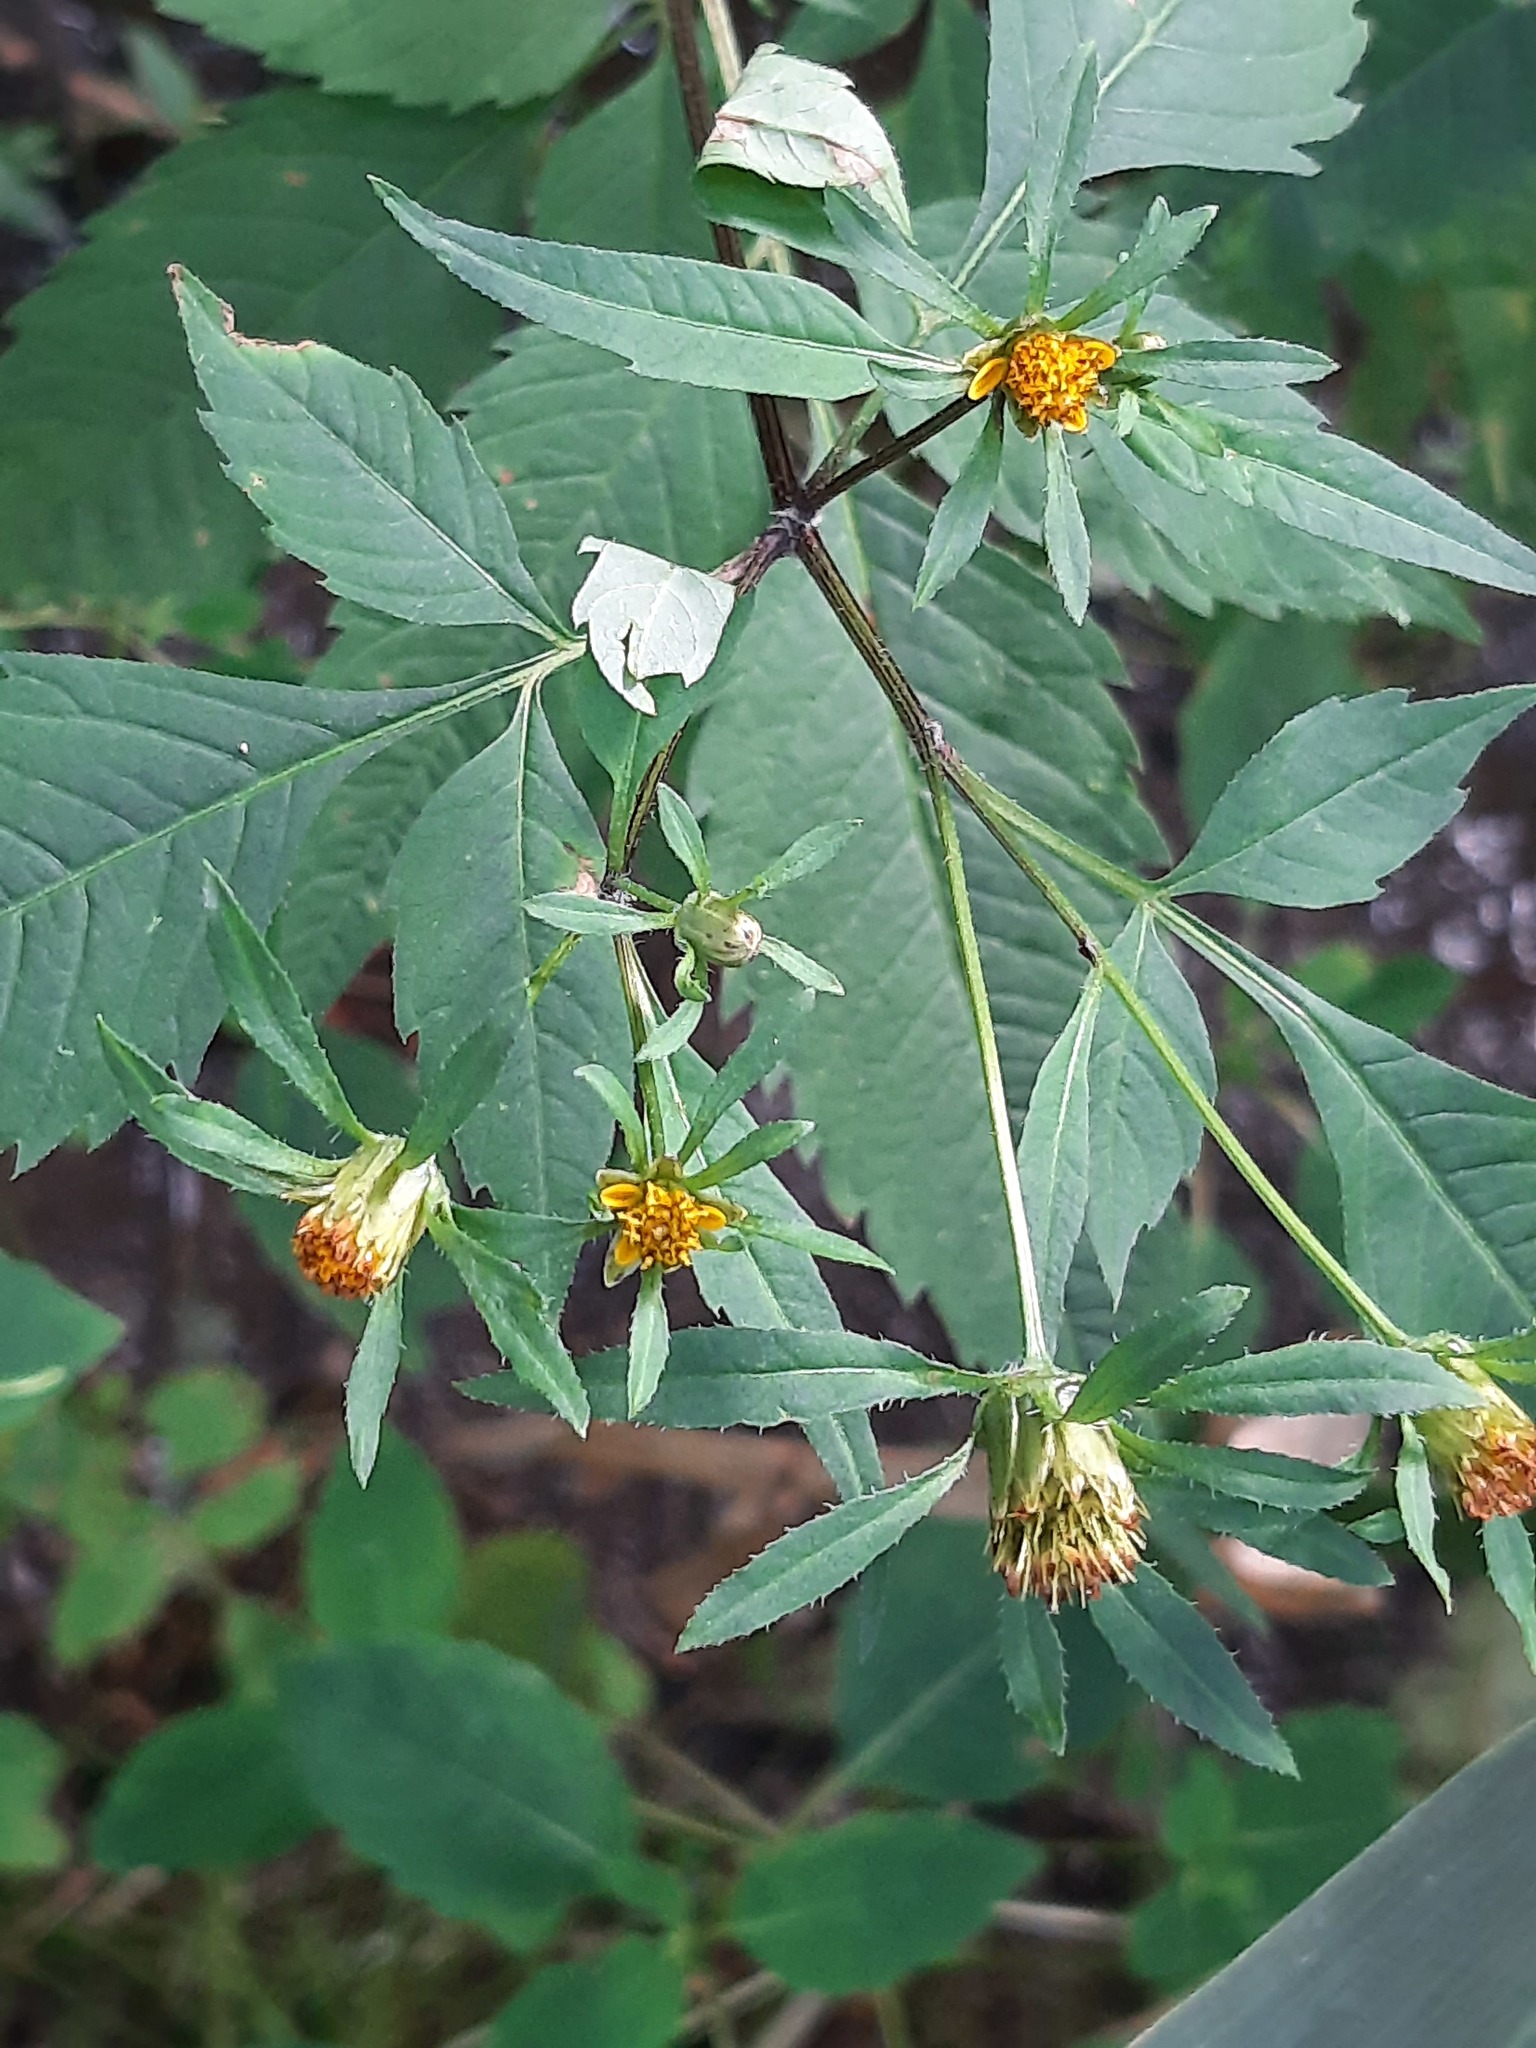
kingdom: Plantae
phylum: Tracheophyta
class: Magnoliopsida
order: Asterales
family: Asteraceae
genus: Bidens
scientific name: Bidens frondosa
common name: Beggarticks
